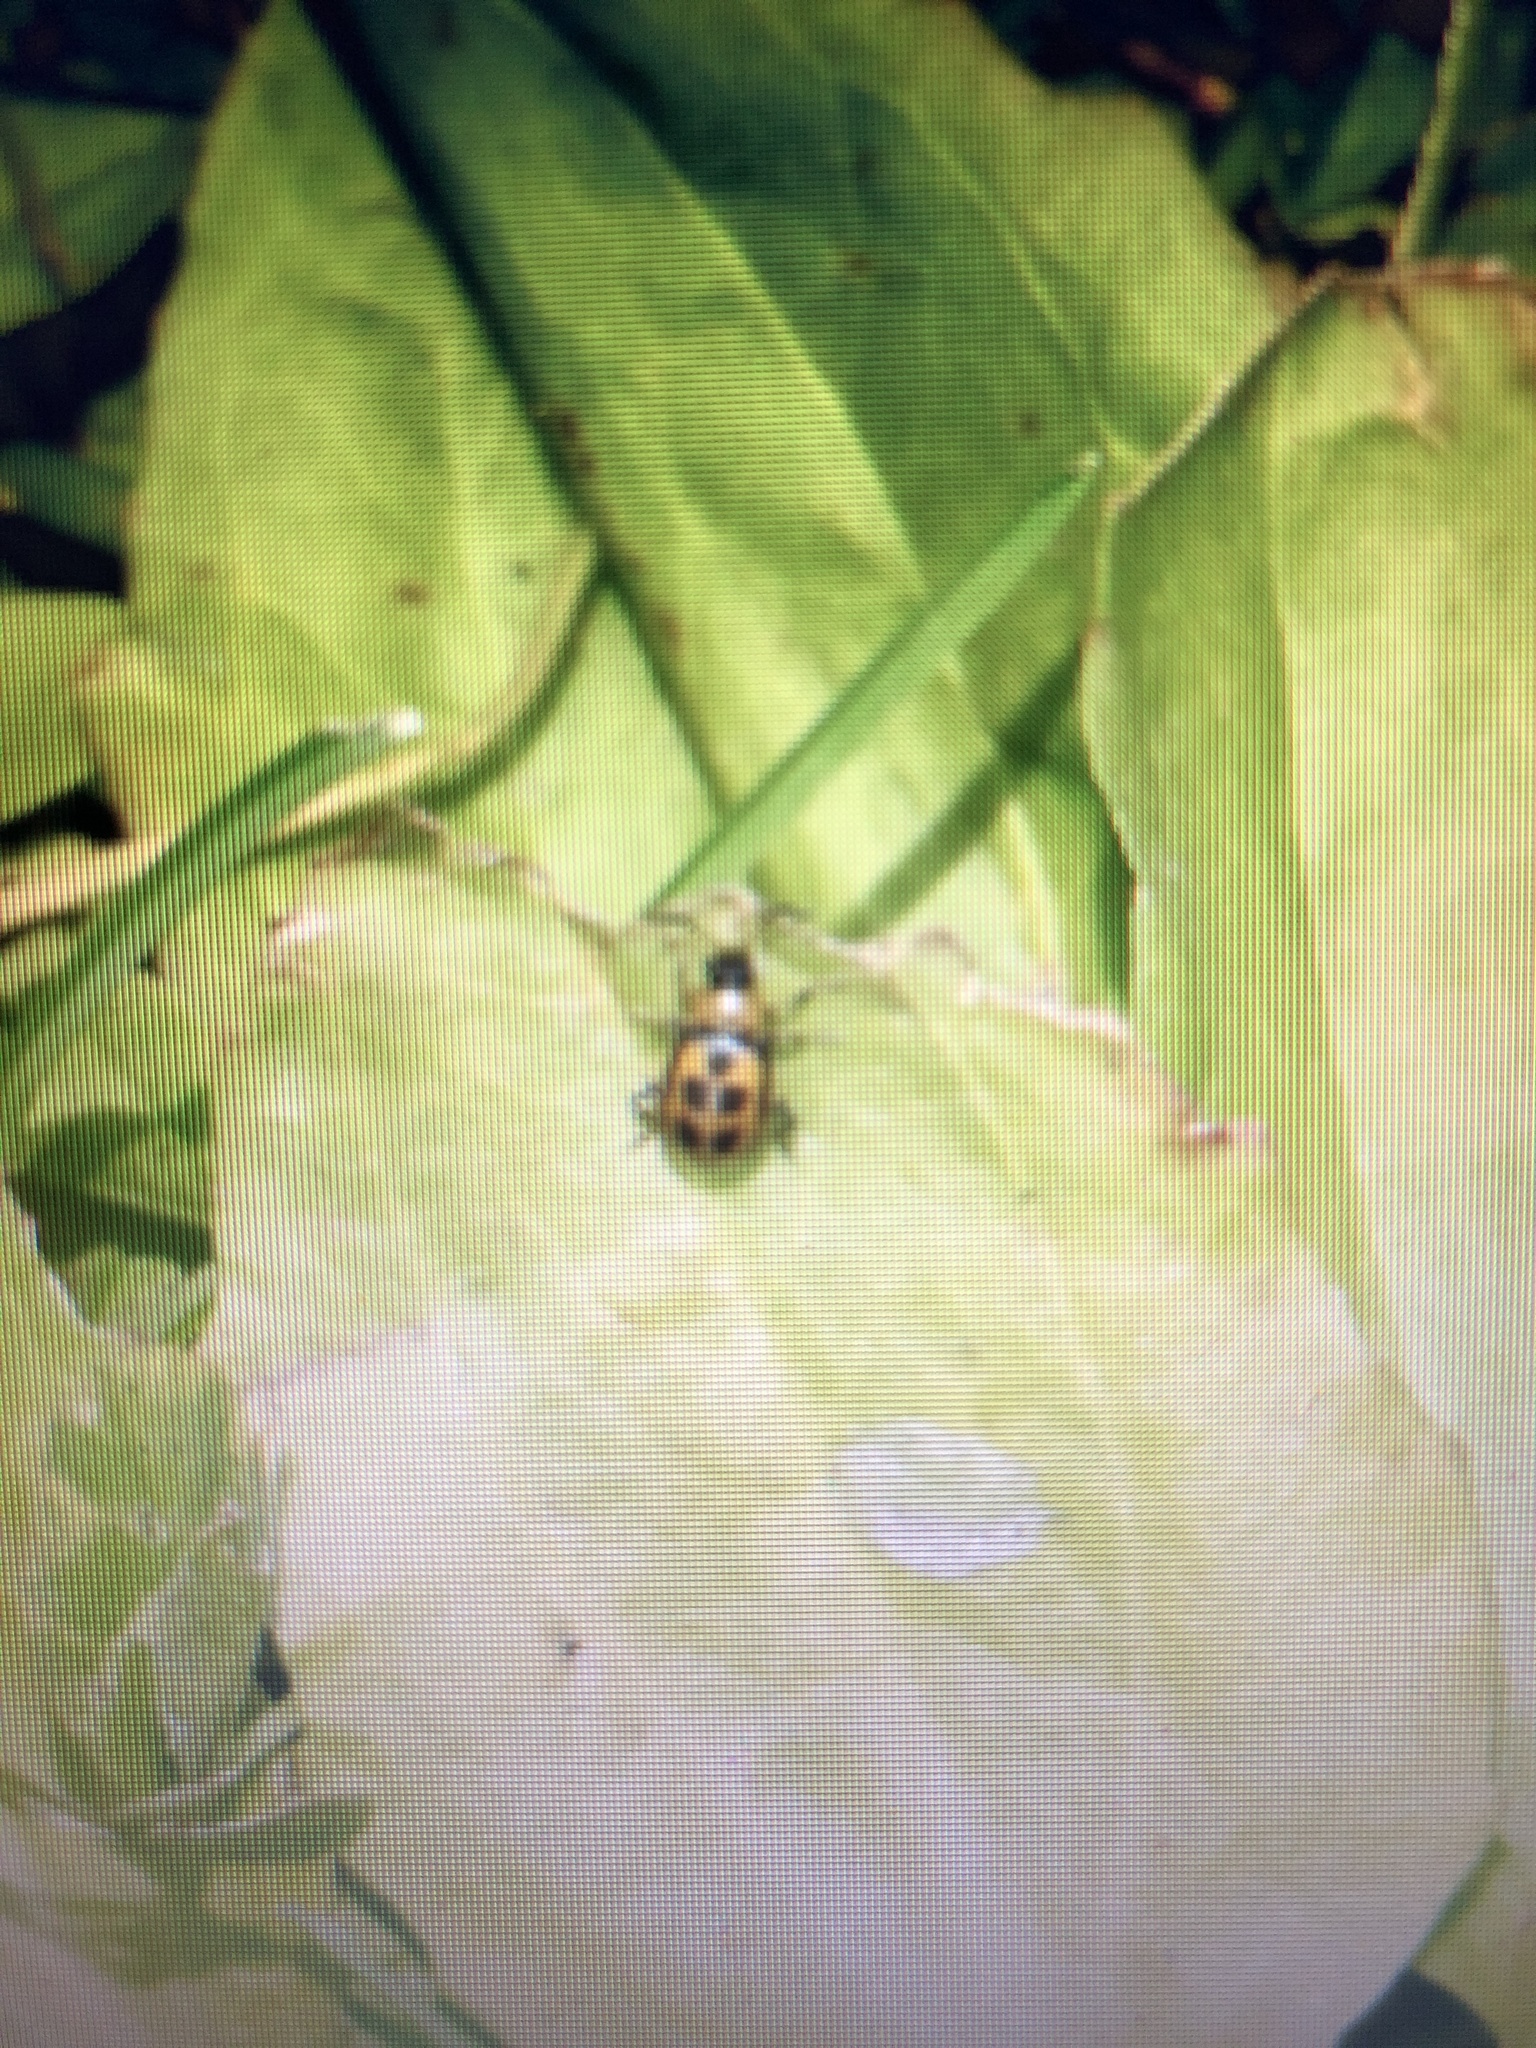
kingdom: Animalia
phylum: Arthropoda
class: Insecta
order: Coleoptera
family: Chrysomelidae
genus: Cerotoma
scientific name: Cerotoma trifurcata
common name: Bean leaf beetle
